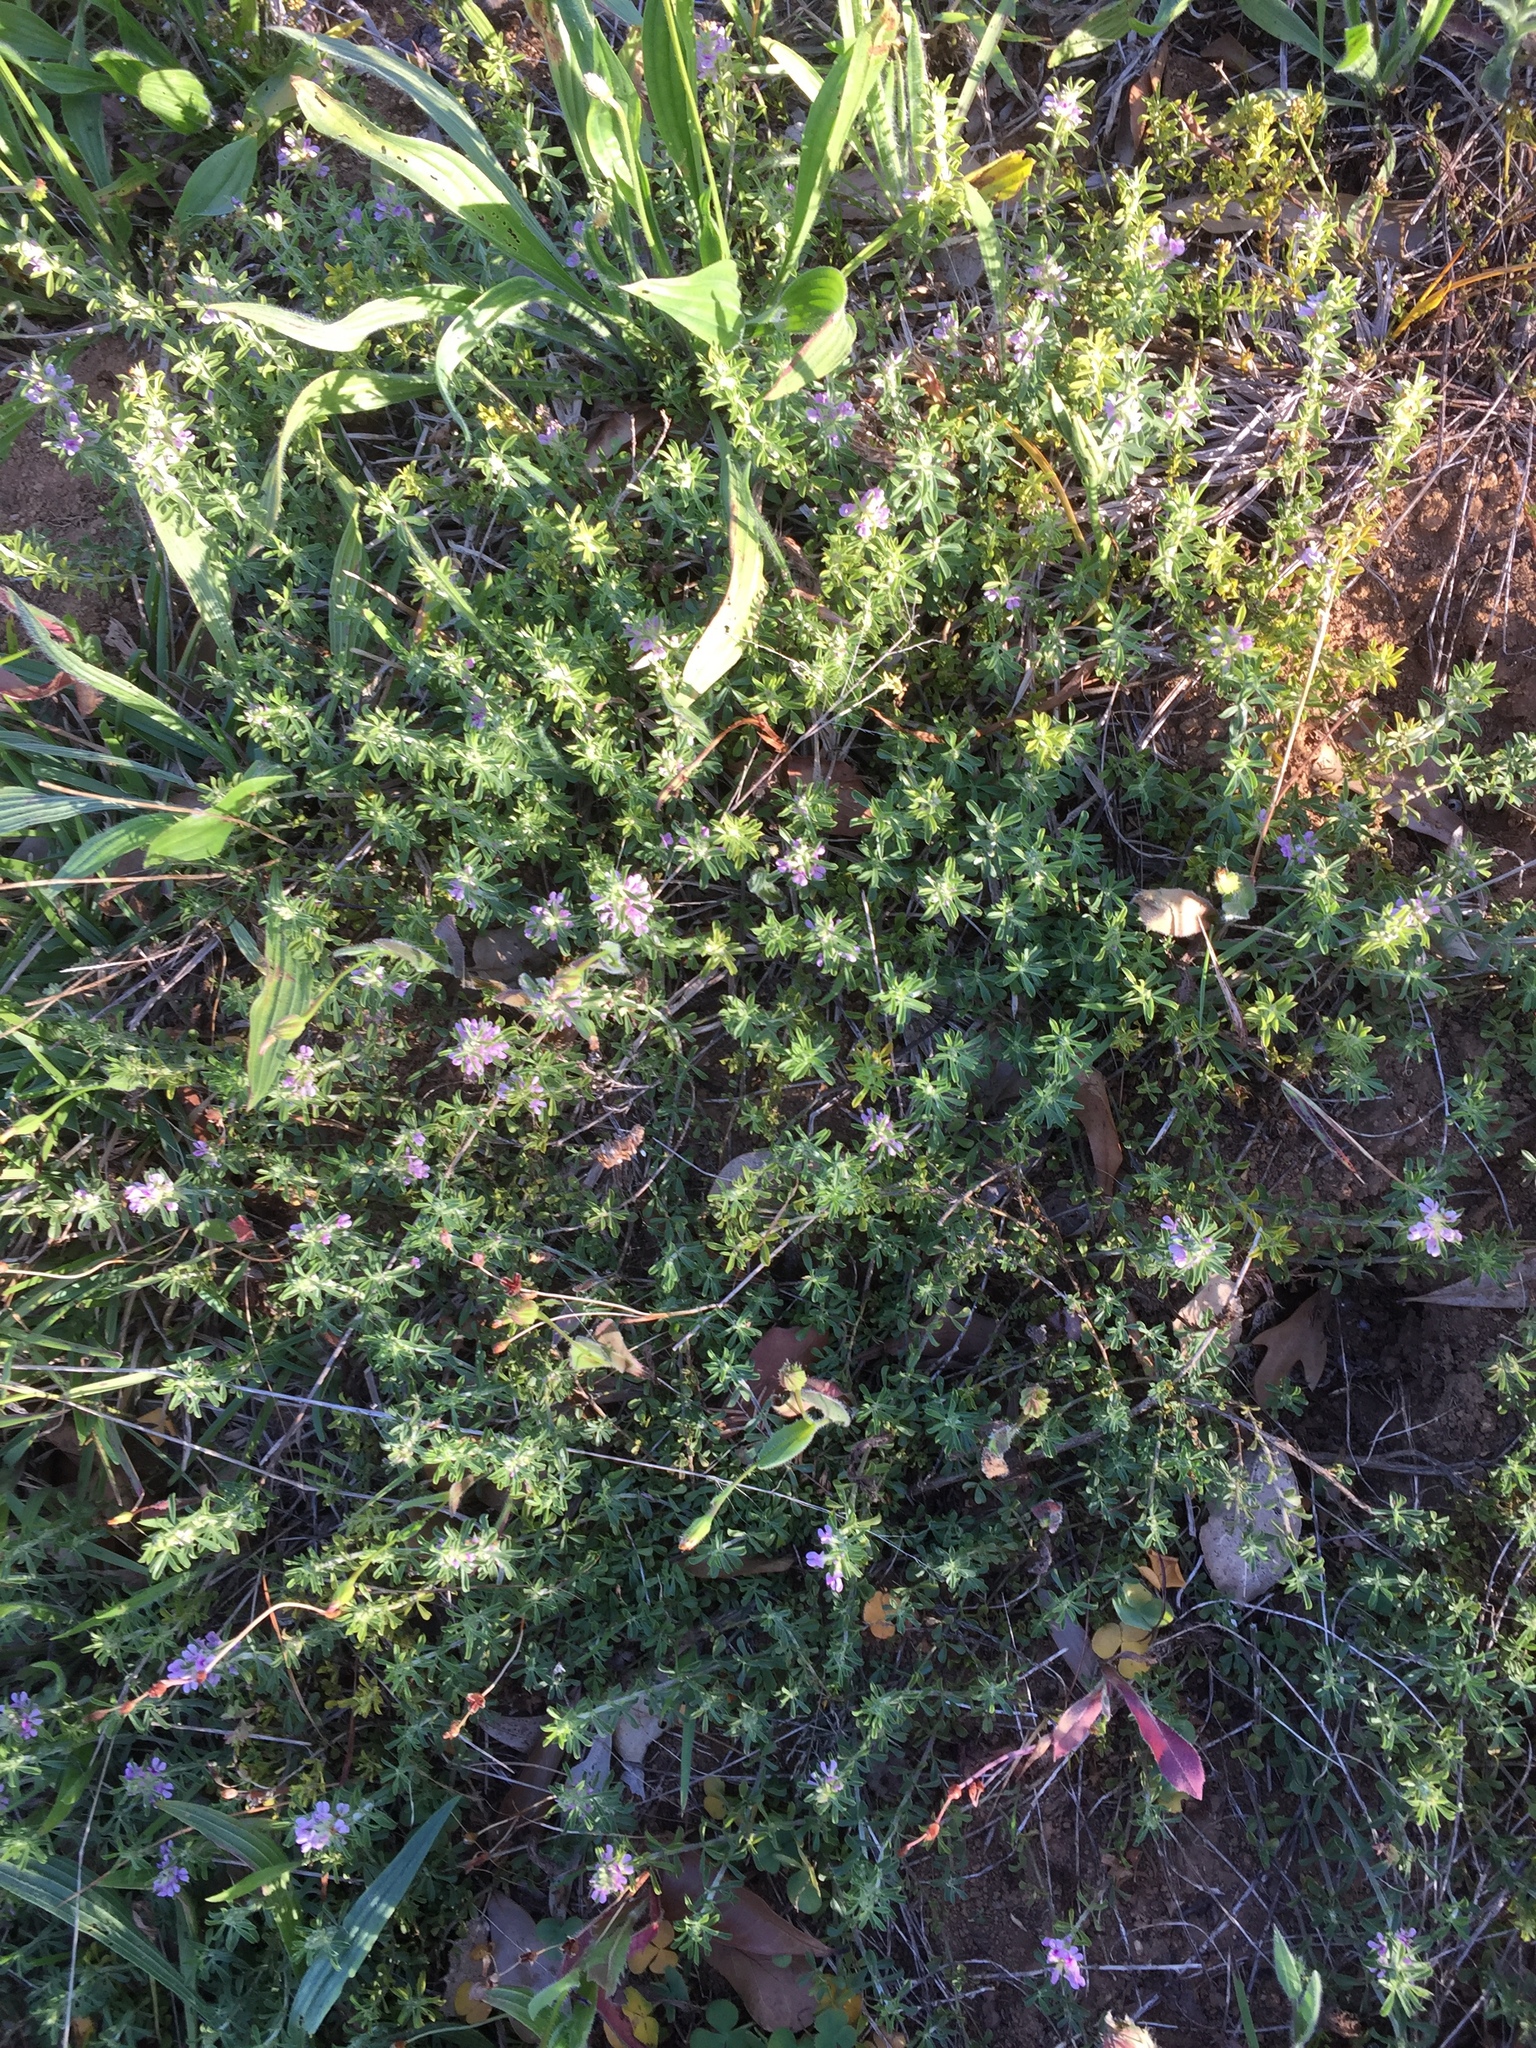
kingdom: Plantae
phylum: Tracheophyta
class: Magnoliopsida
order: Fabales
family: Fabaceae
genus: Psoralea
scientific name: Psoralea
